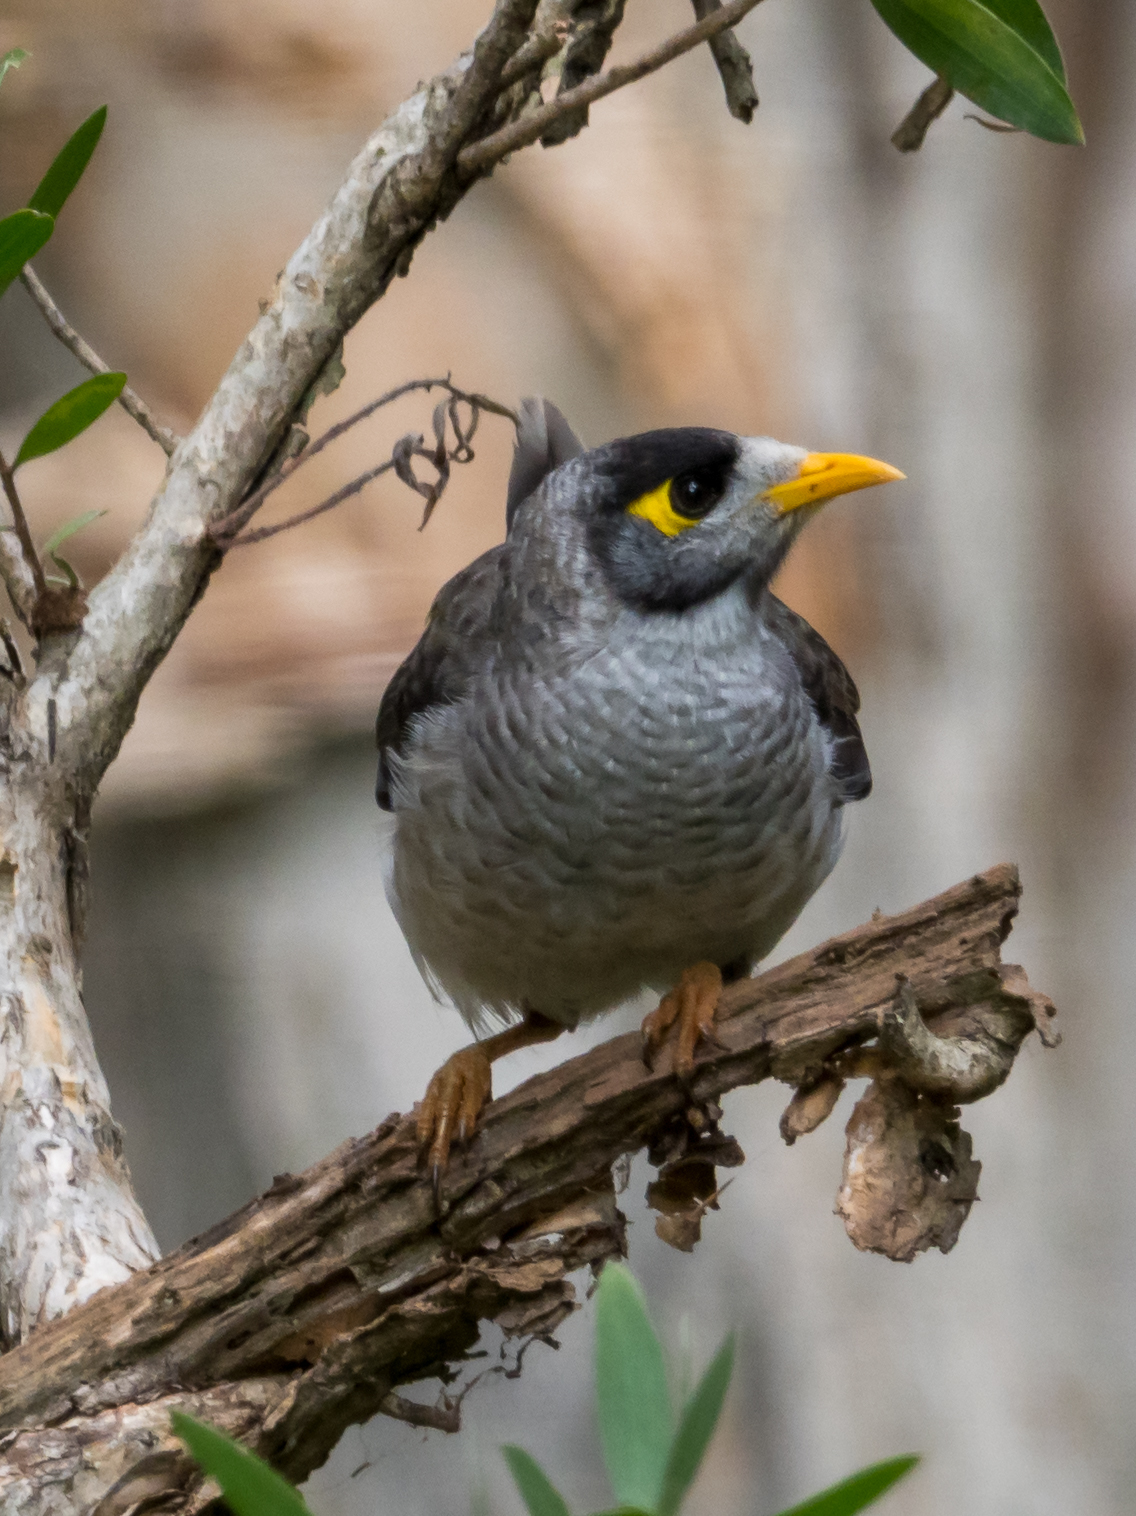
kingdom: Animalia
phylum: Chordata
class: Aves
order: Passeriformes
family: Meliphagidae
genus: Manorina
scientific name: Manorina melanocephala
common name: Noisy miner
